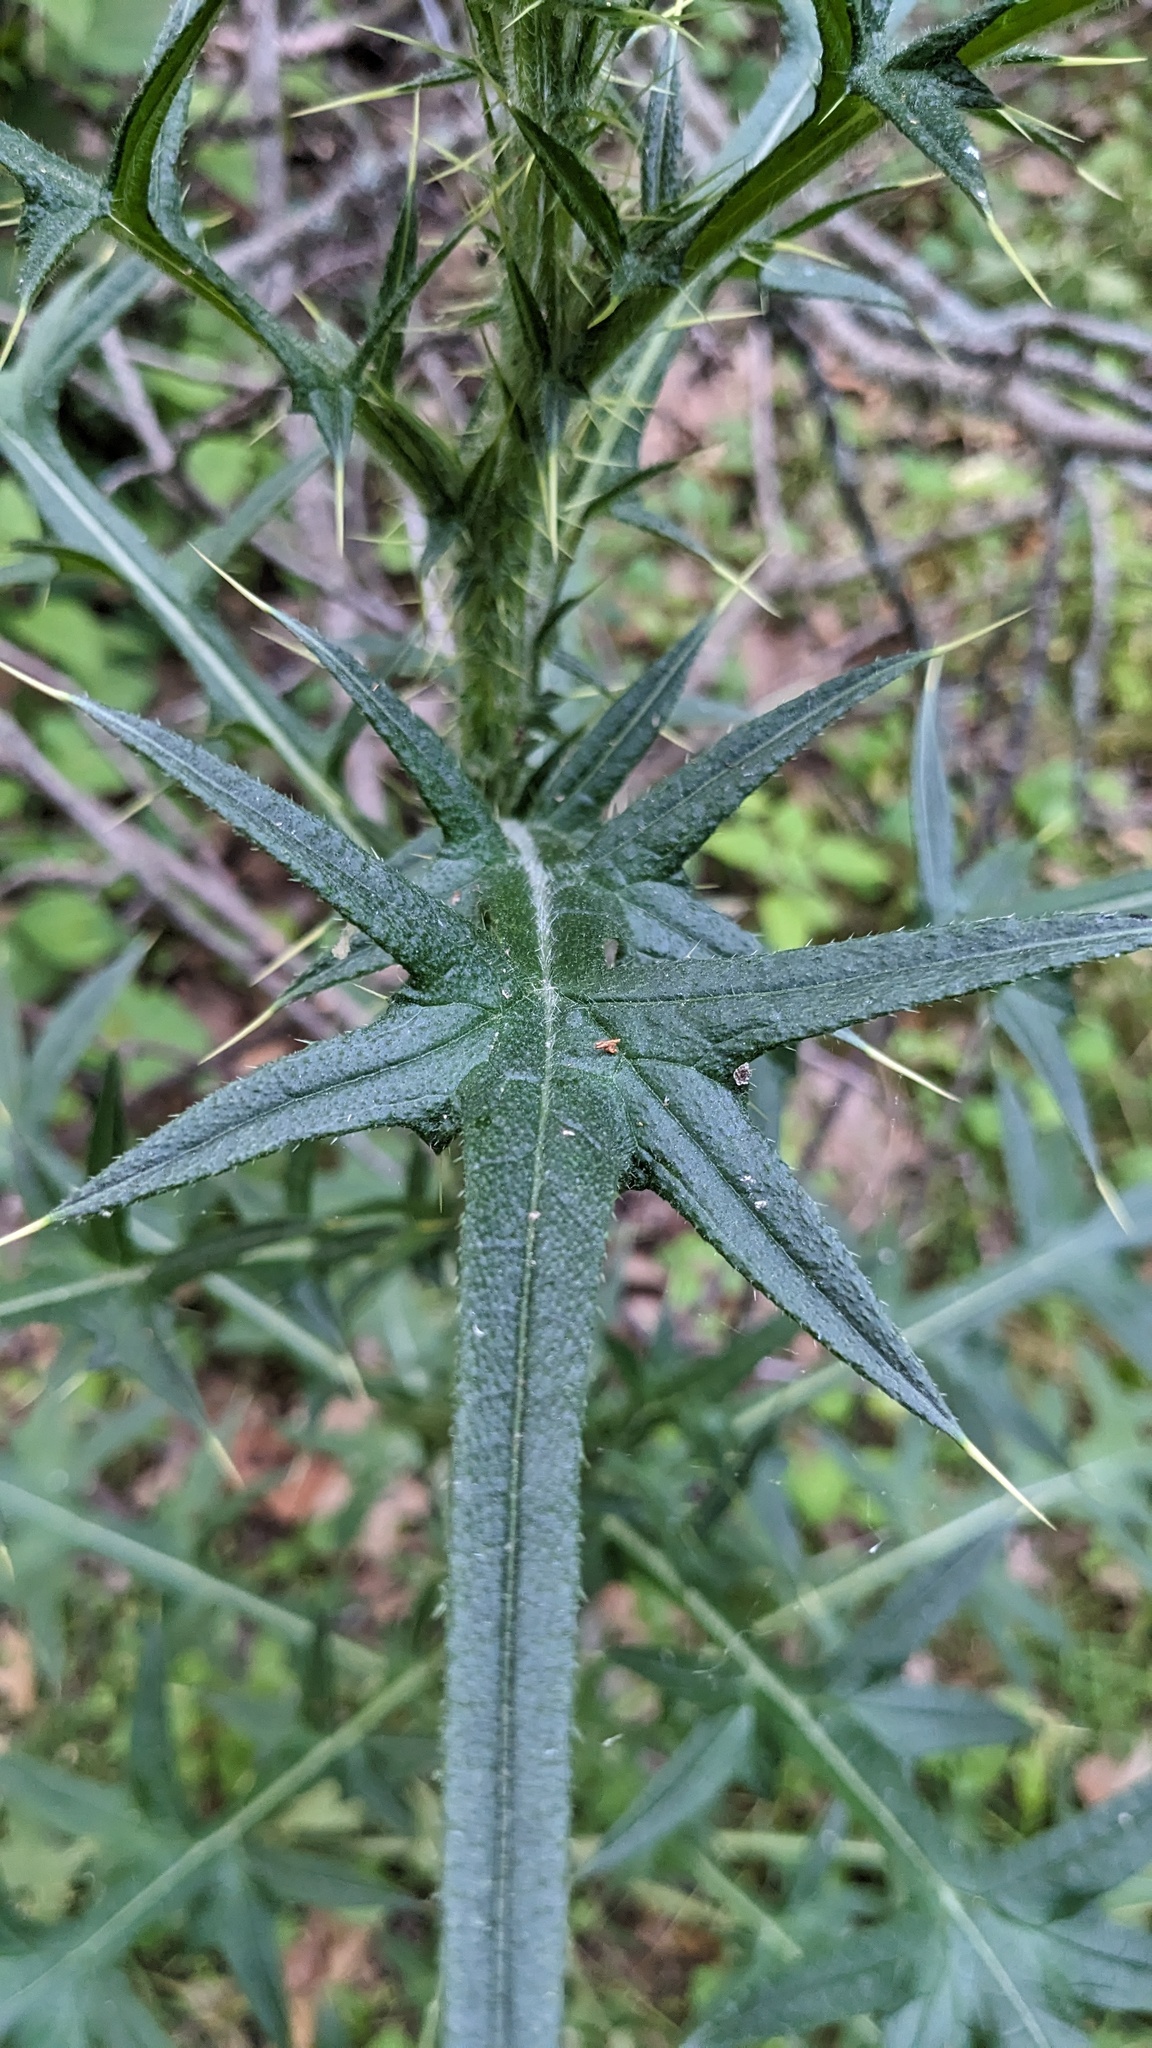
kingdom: Plantae
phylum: Tracheophyta
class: Magnoliopsida
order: Asterales
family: Asteraceae
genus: Cirsium
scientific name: Cirsium vulgare
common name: Bull thistle
